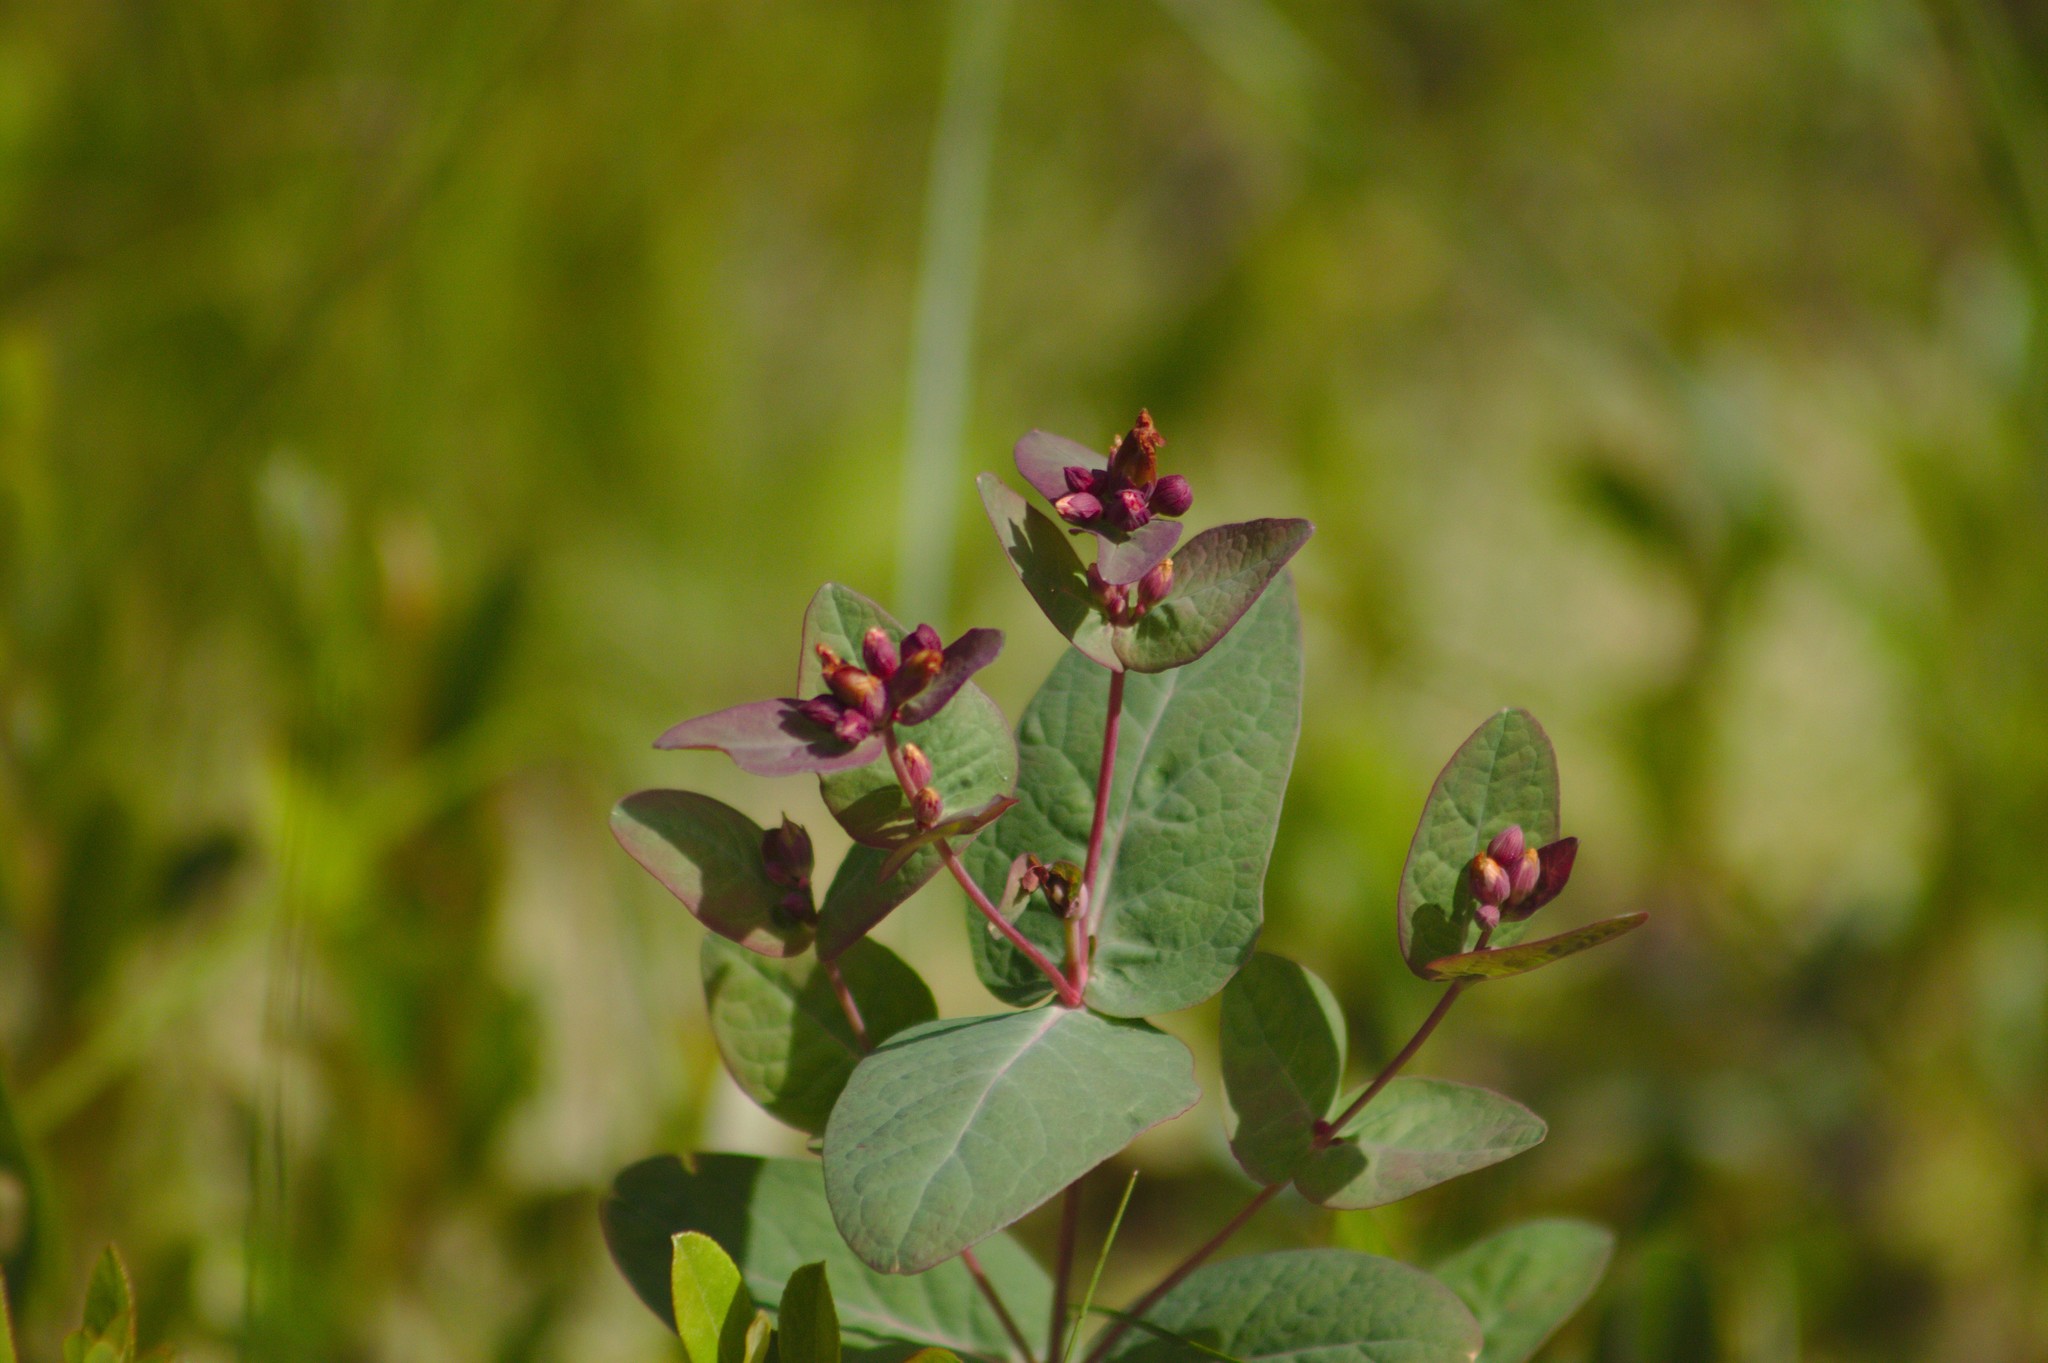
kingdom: Plantae
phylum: Tracheophyta
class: Magnoliopsida
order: Malpighiales
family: Hypericaceae
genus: Triadenum
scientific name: Triadenum fraseri
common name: Fraser's marsh st. johnswort
